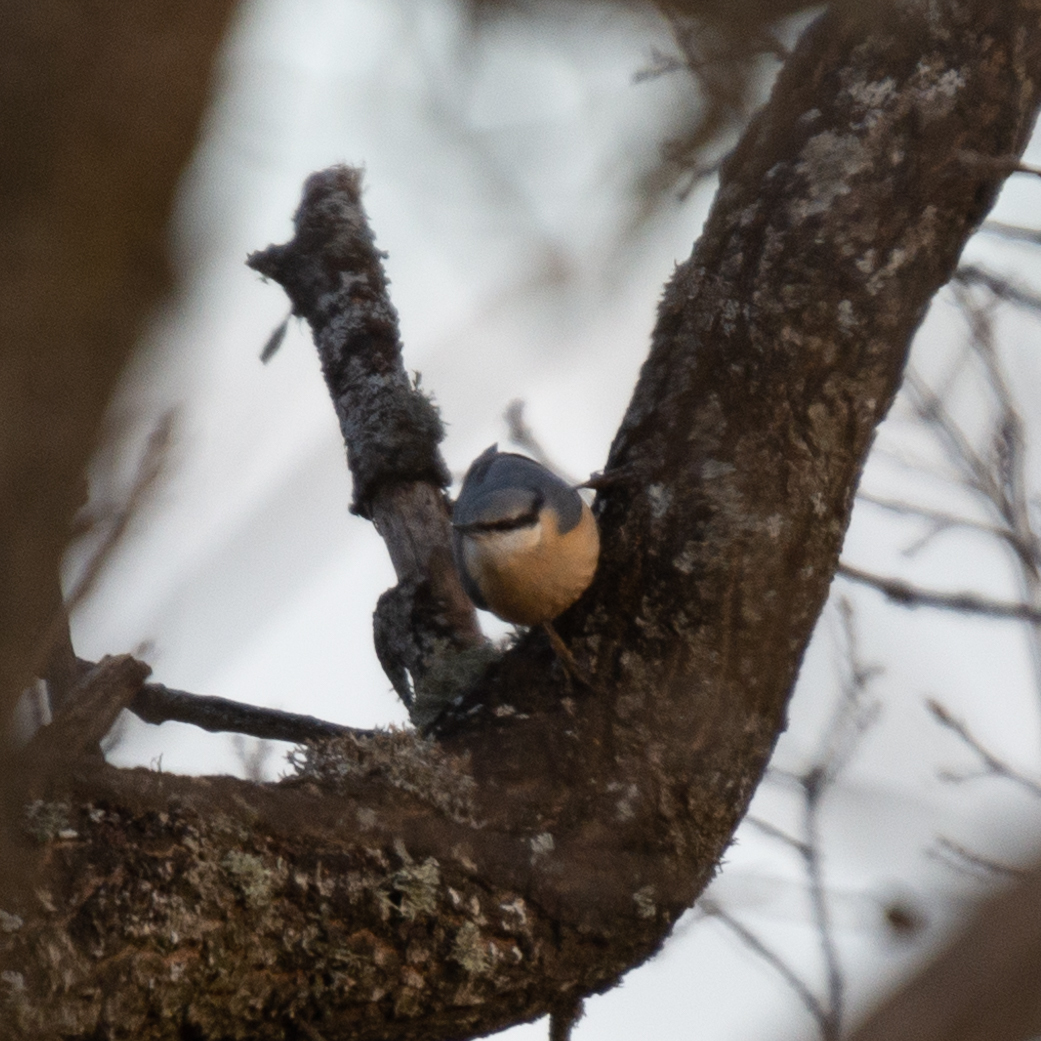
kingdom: Animalia
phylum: Chordata
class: Aves
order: Passeriformes
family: Sittidae
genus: Sitta
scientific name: Sitta europaea
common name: Eurasian nuthatch
